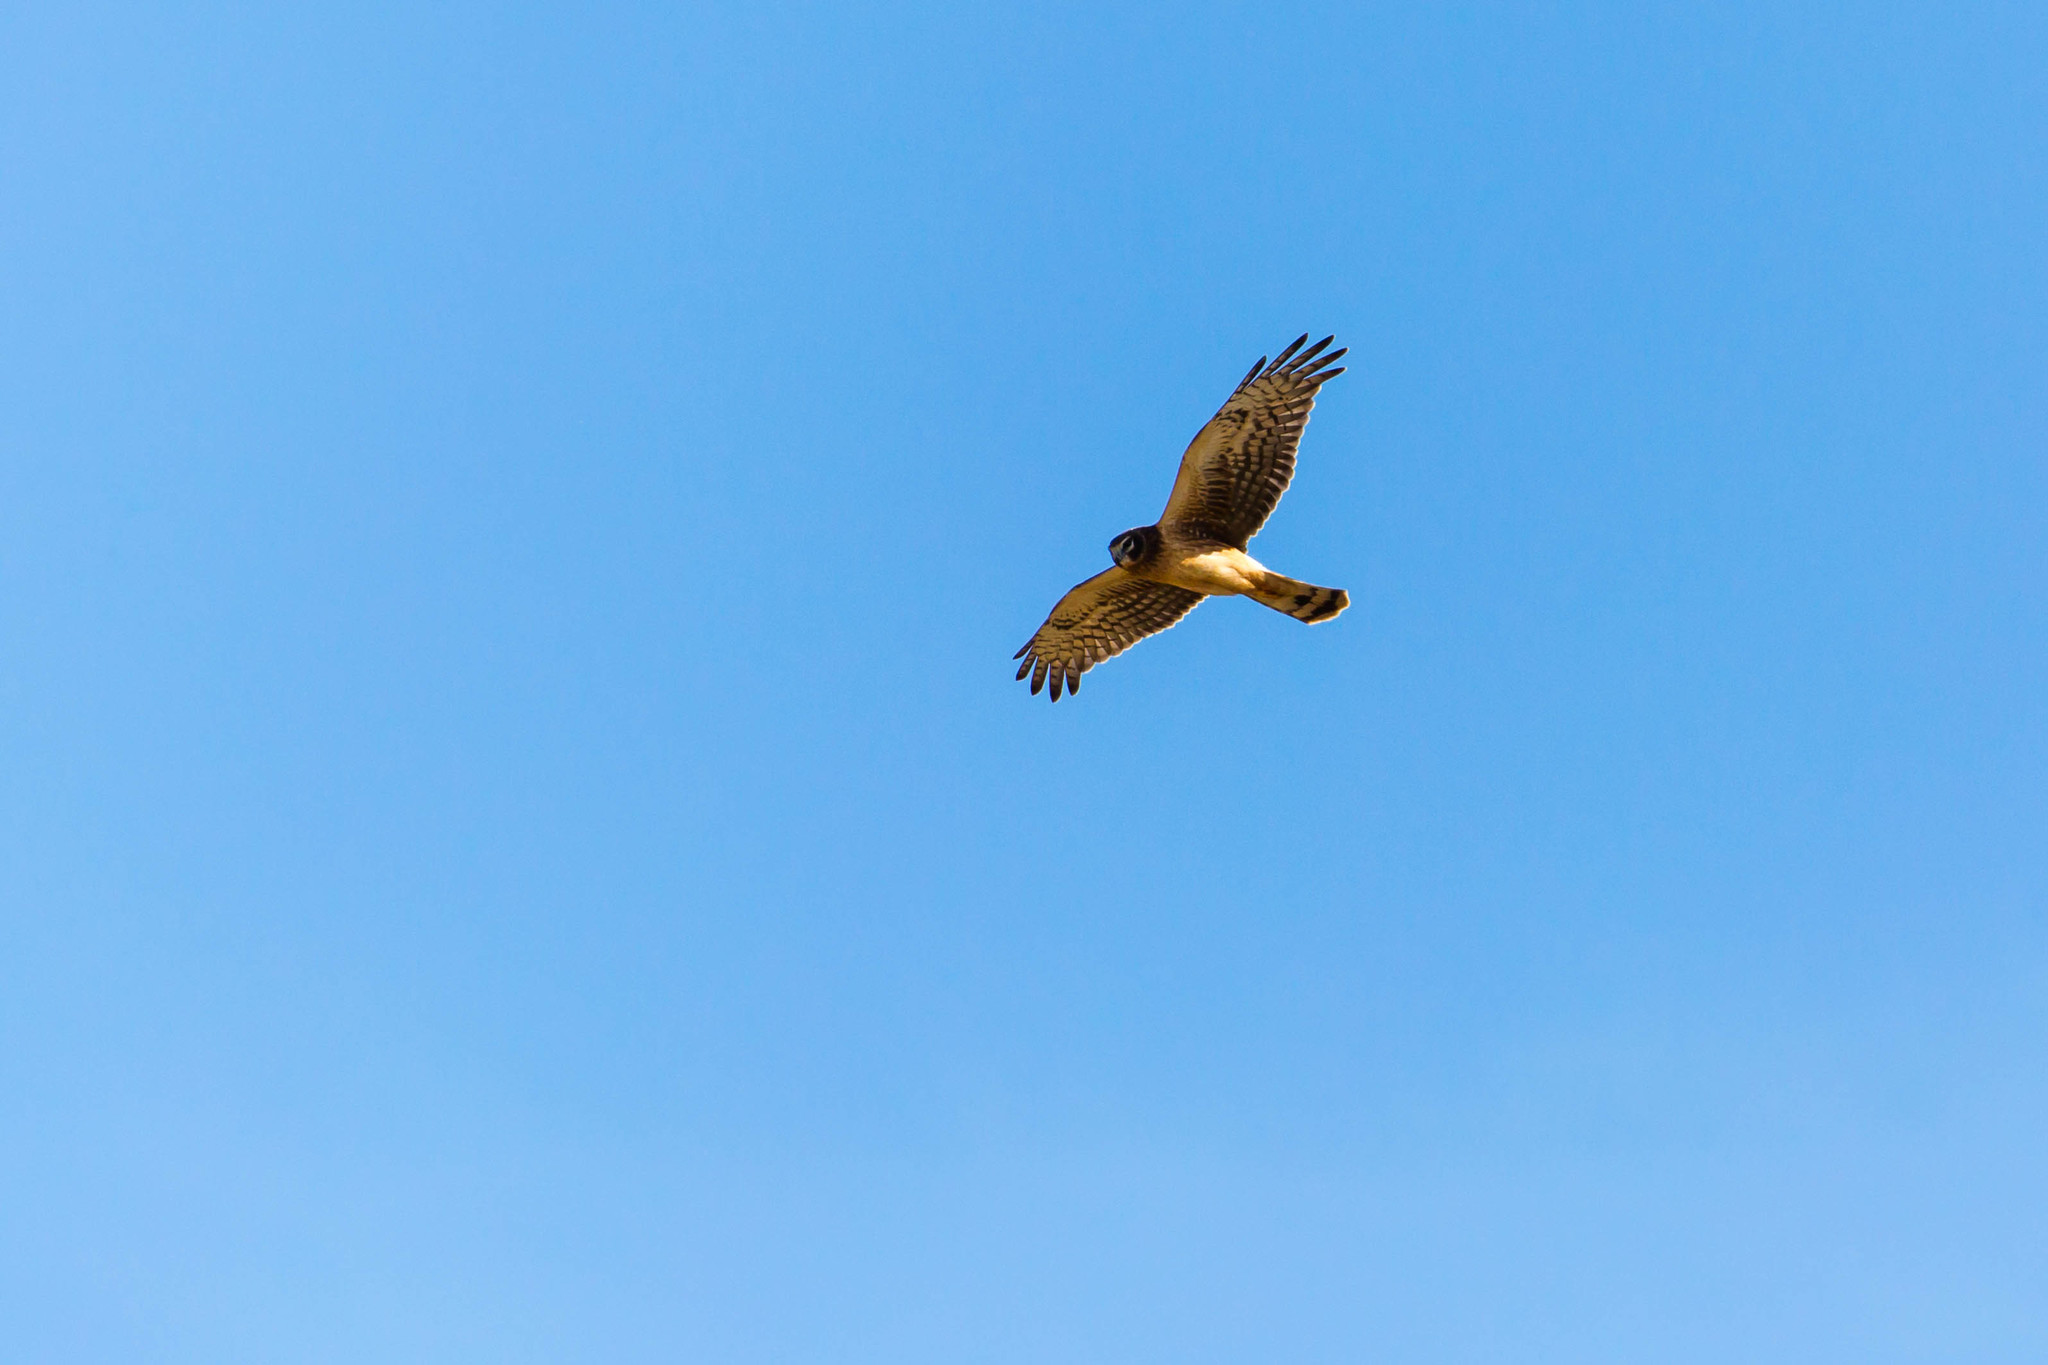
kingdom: Animalia
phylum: Chordata
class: Aves
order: Accipitriformes
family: Accipitridae
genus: Circus
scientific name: Circus cyaneus
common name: Hen harrier
